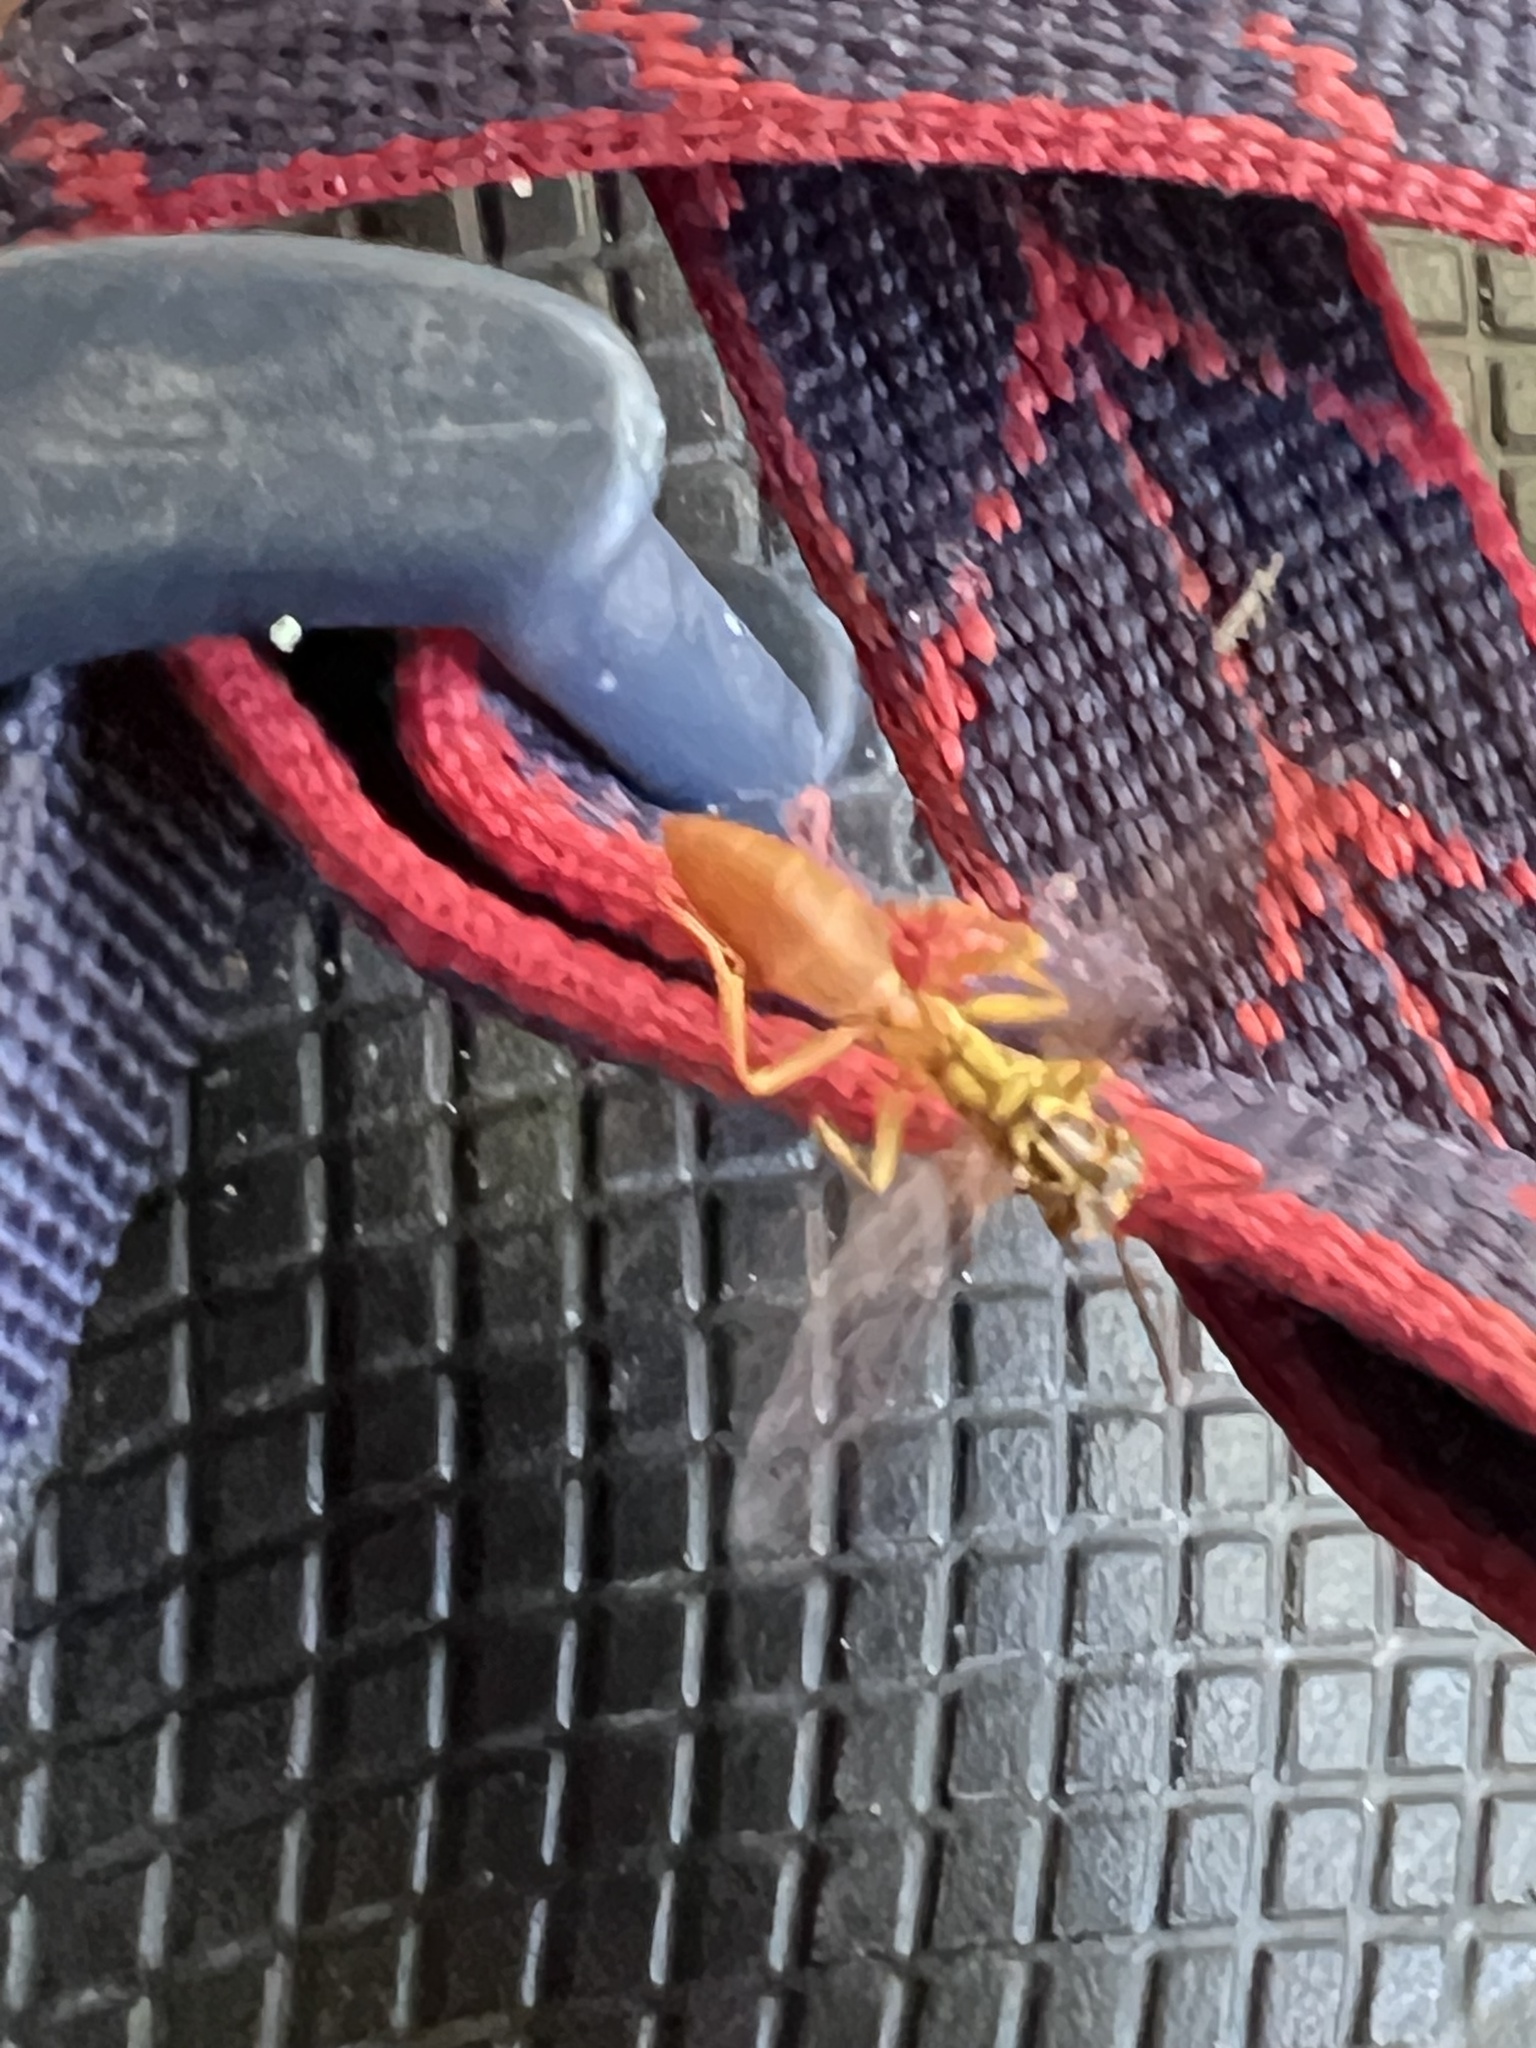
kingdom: Animalia
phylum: Arthropoda
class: Insecta
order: Hymenoptera
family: Vespidae
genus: Agelaia
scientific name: Agelaia centralis
